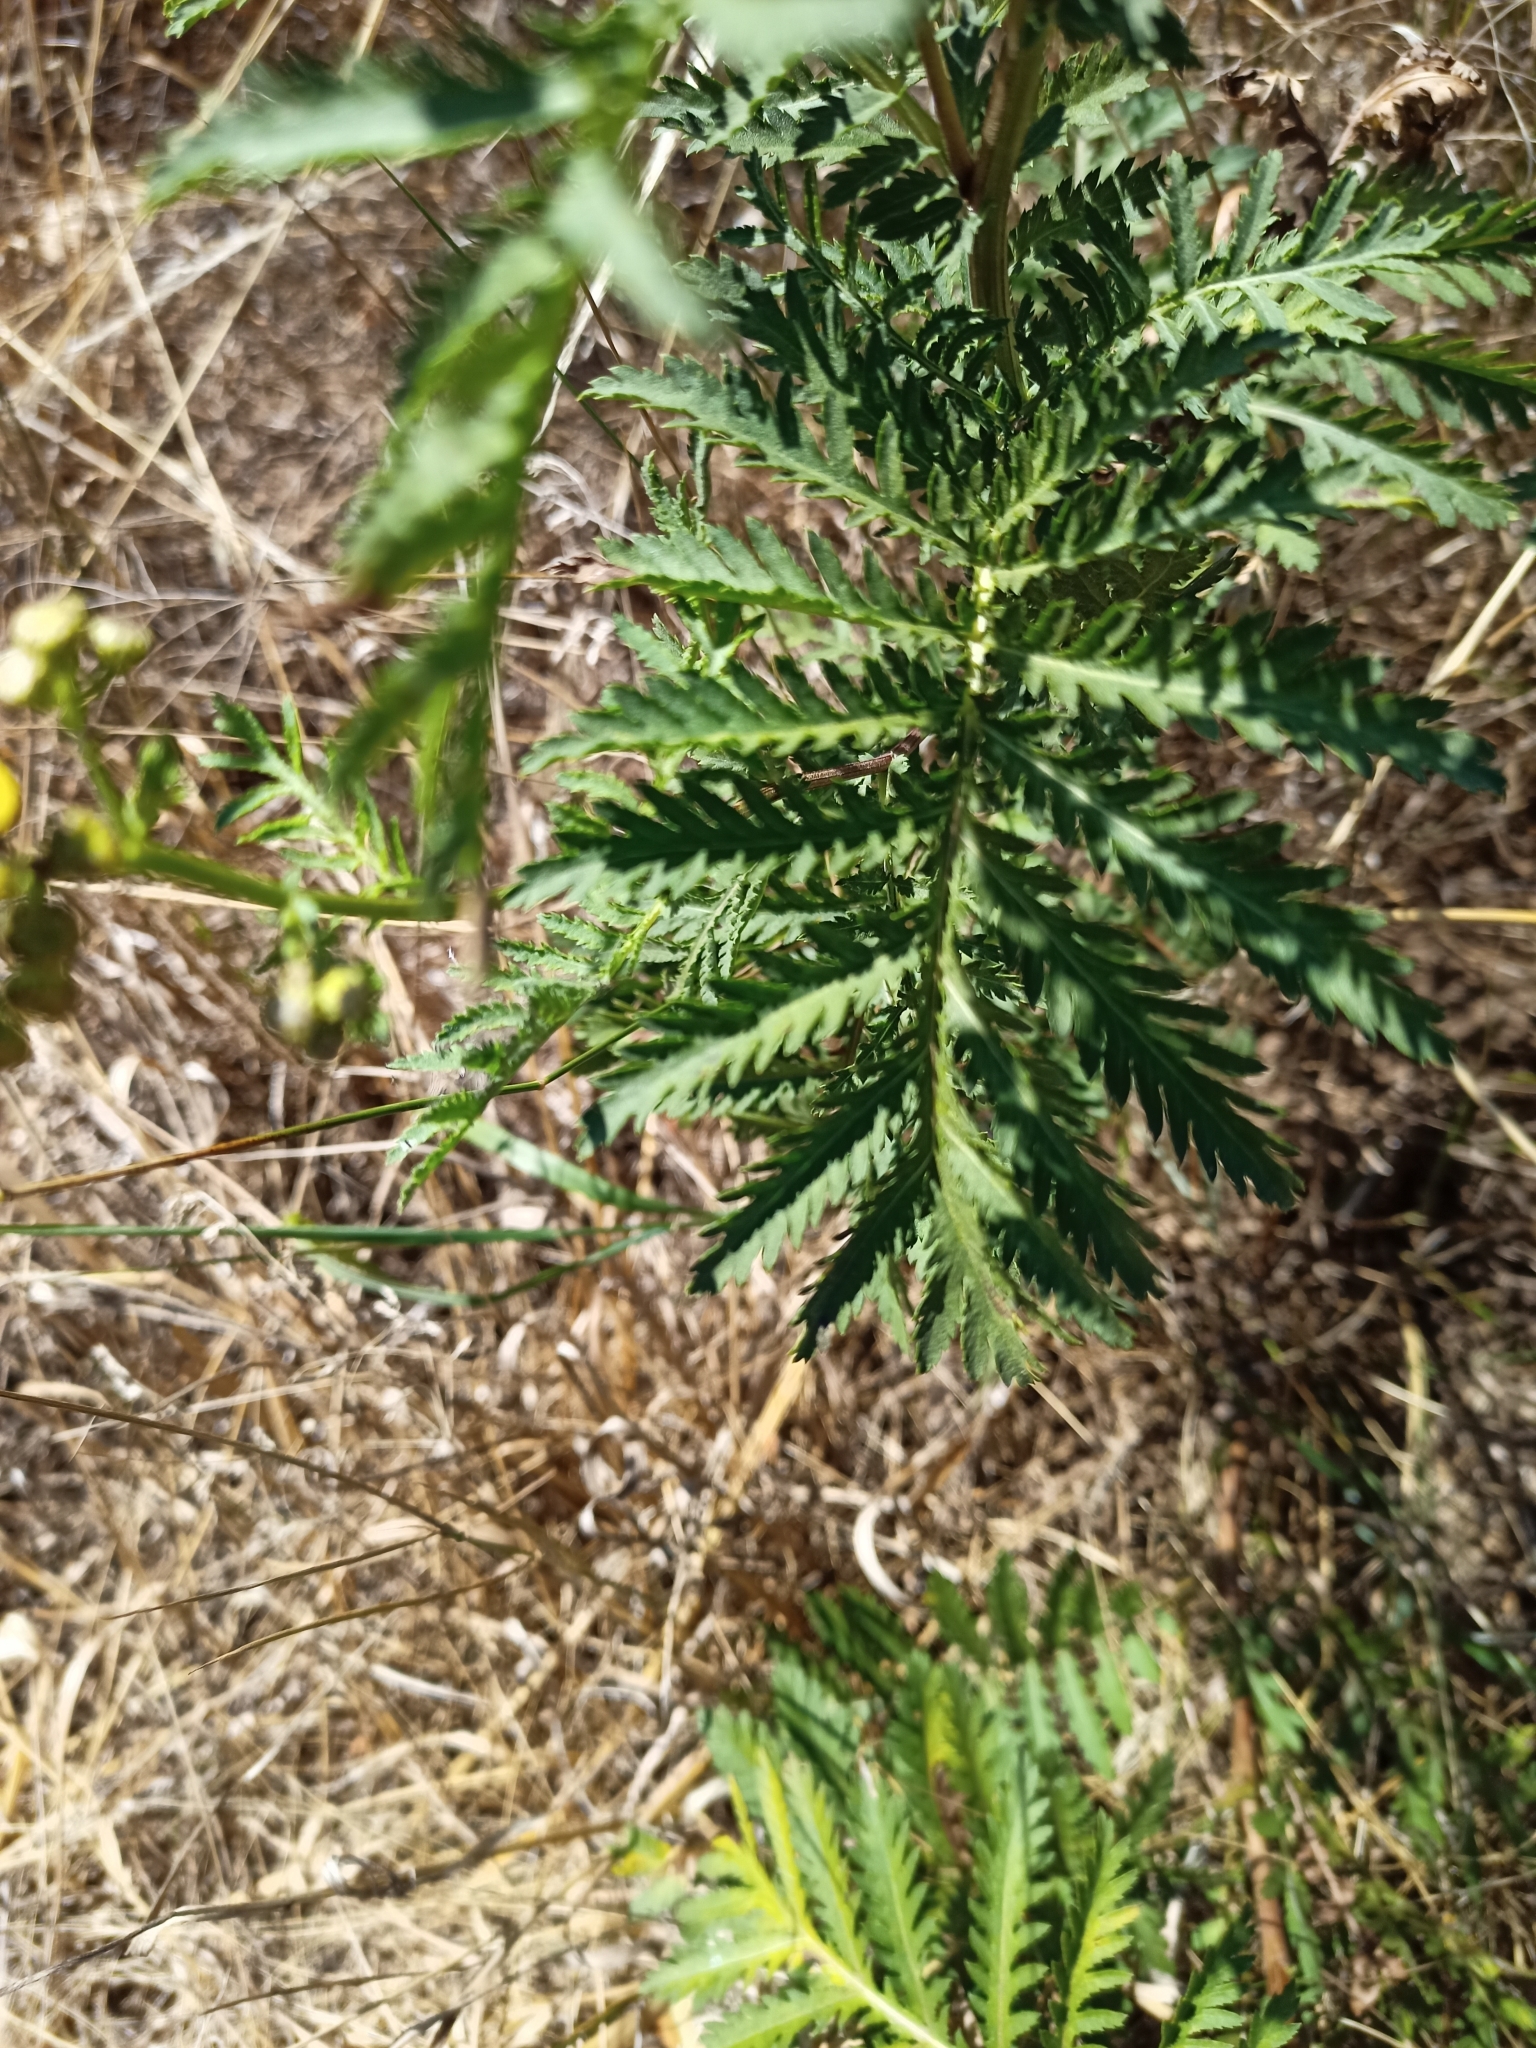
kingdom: Plantae
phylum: Tracheophyta
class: Magnoliopsida
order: Asterales
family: Asteraceae
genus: Tanacetum
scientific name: Tanacetum vulgare
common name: Common tansy
